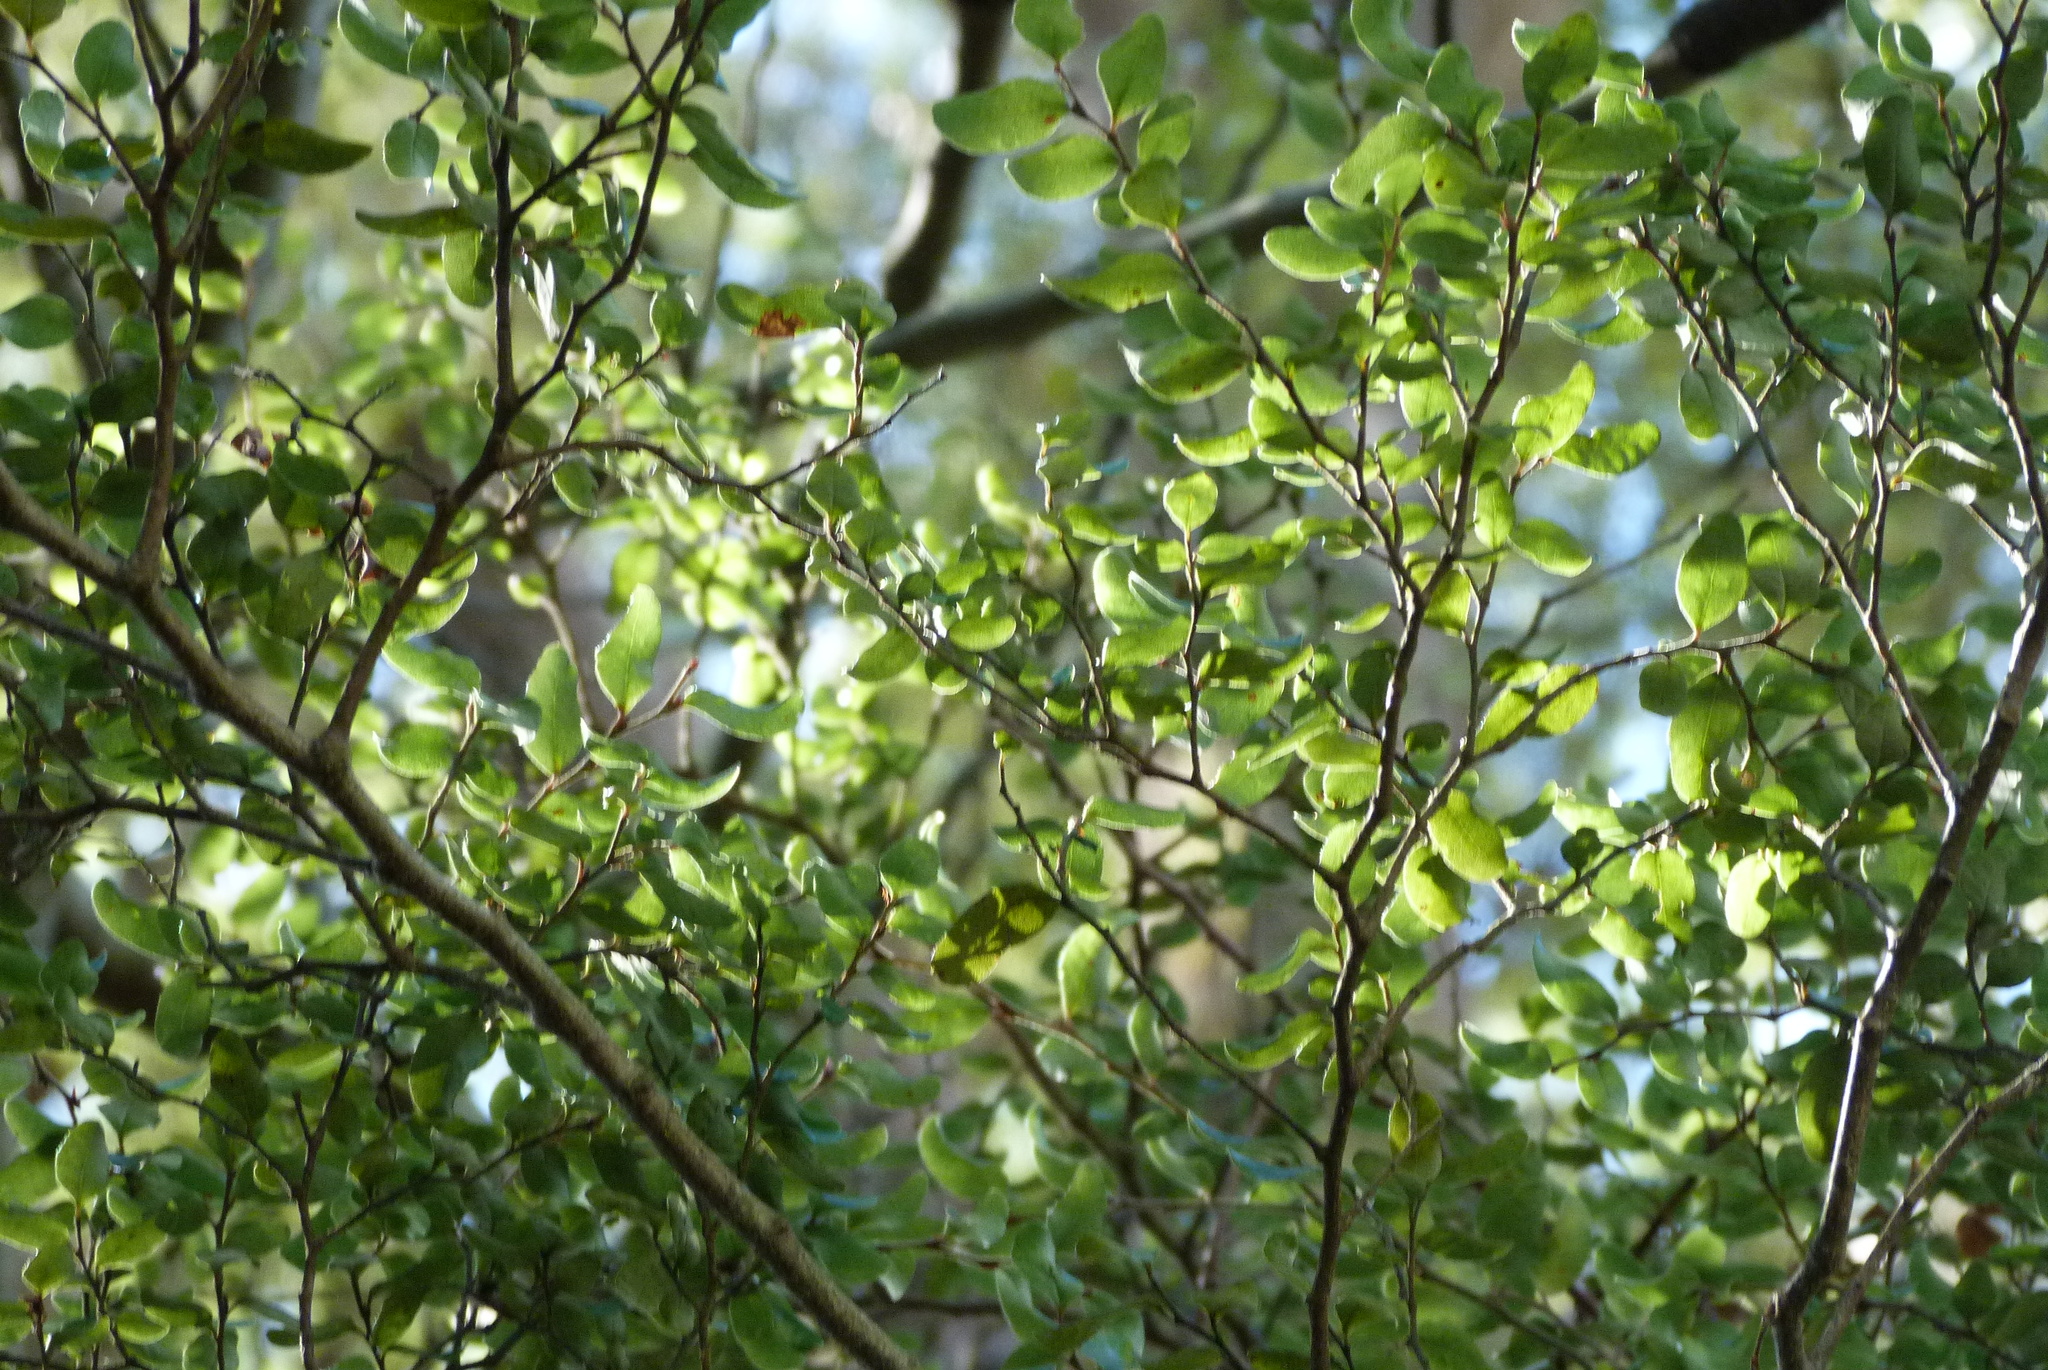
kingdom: Plantae
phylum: Tracheophyta
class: Magnoliopsida
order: Fagales
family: Nothofagaceae
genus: Nothofagus
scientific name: Nothofagus cliffortioides
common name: Mountain beech
